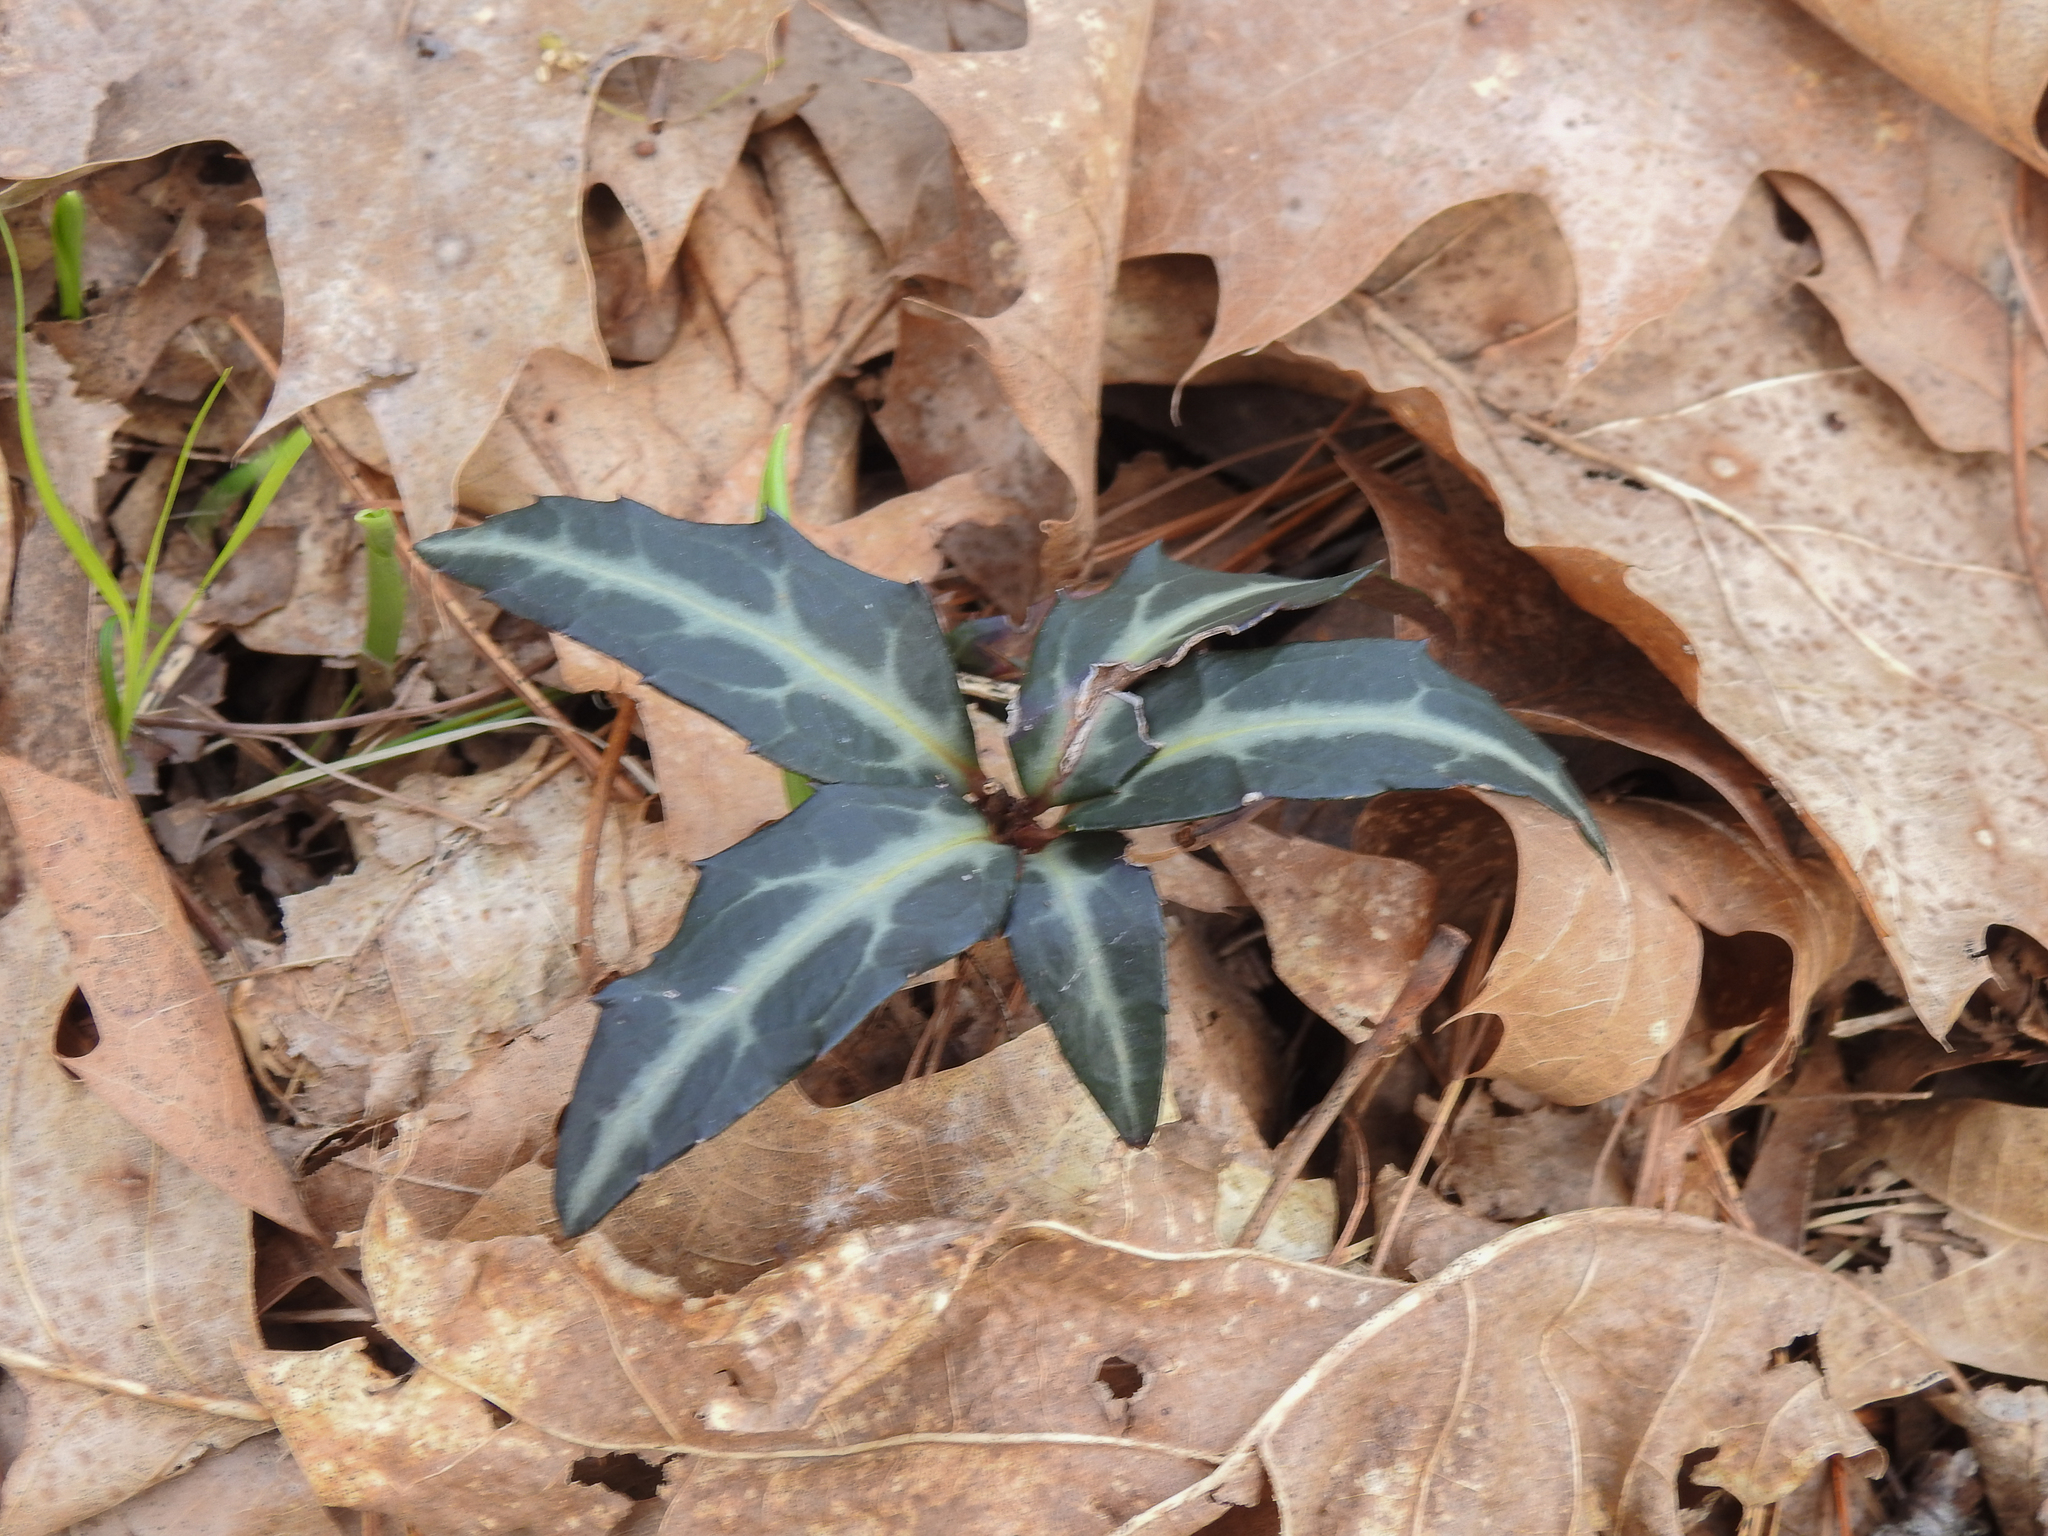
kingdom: Plantae
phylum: Tracheophyta
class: Magnoliopsida
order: Ericales
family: Ericaceae
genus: Chimaphila
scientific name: Chimaphila maculata
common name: Spotted pipsissewa
